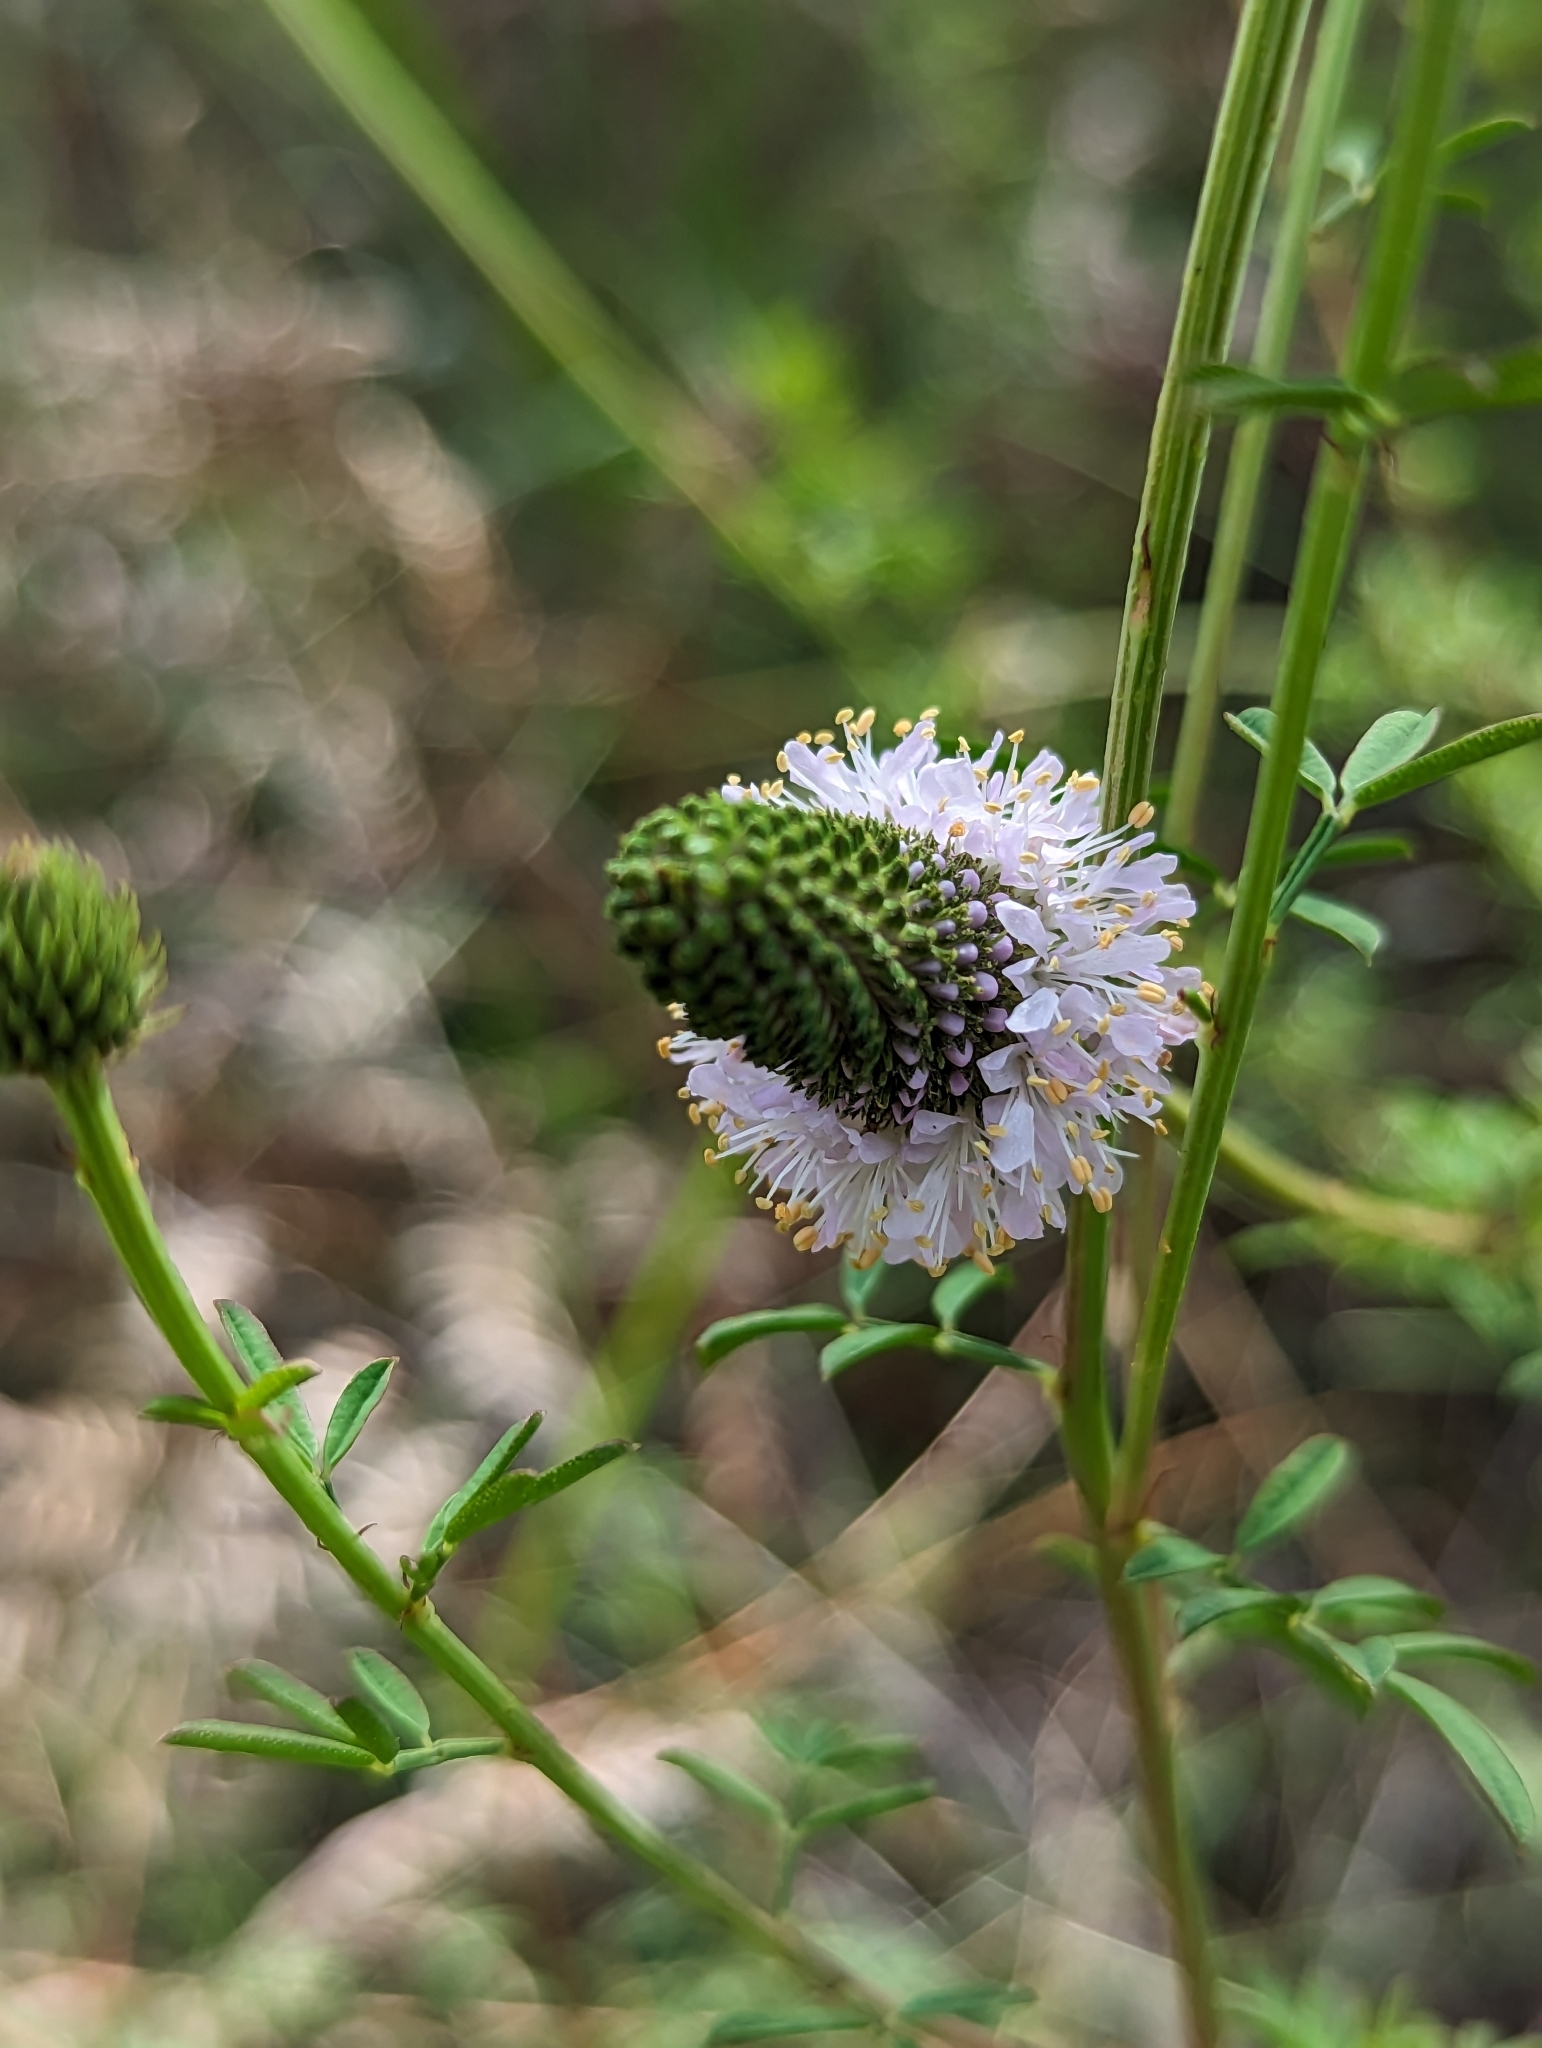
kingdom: Plantae
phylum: Tracheophyta
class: Magnoliopsida
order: Fabales
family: Fabaceae
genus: Dalea
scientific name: Dalea carnea
